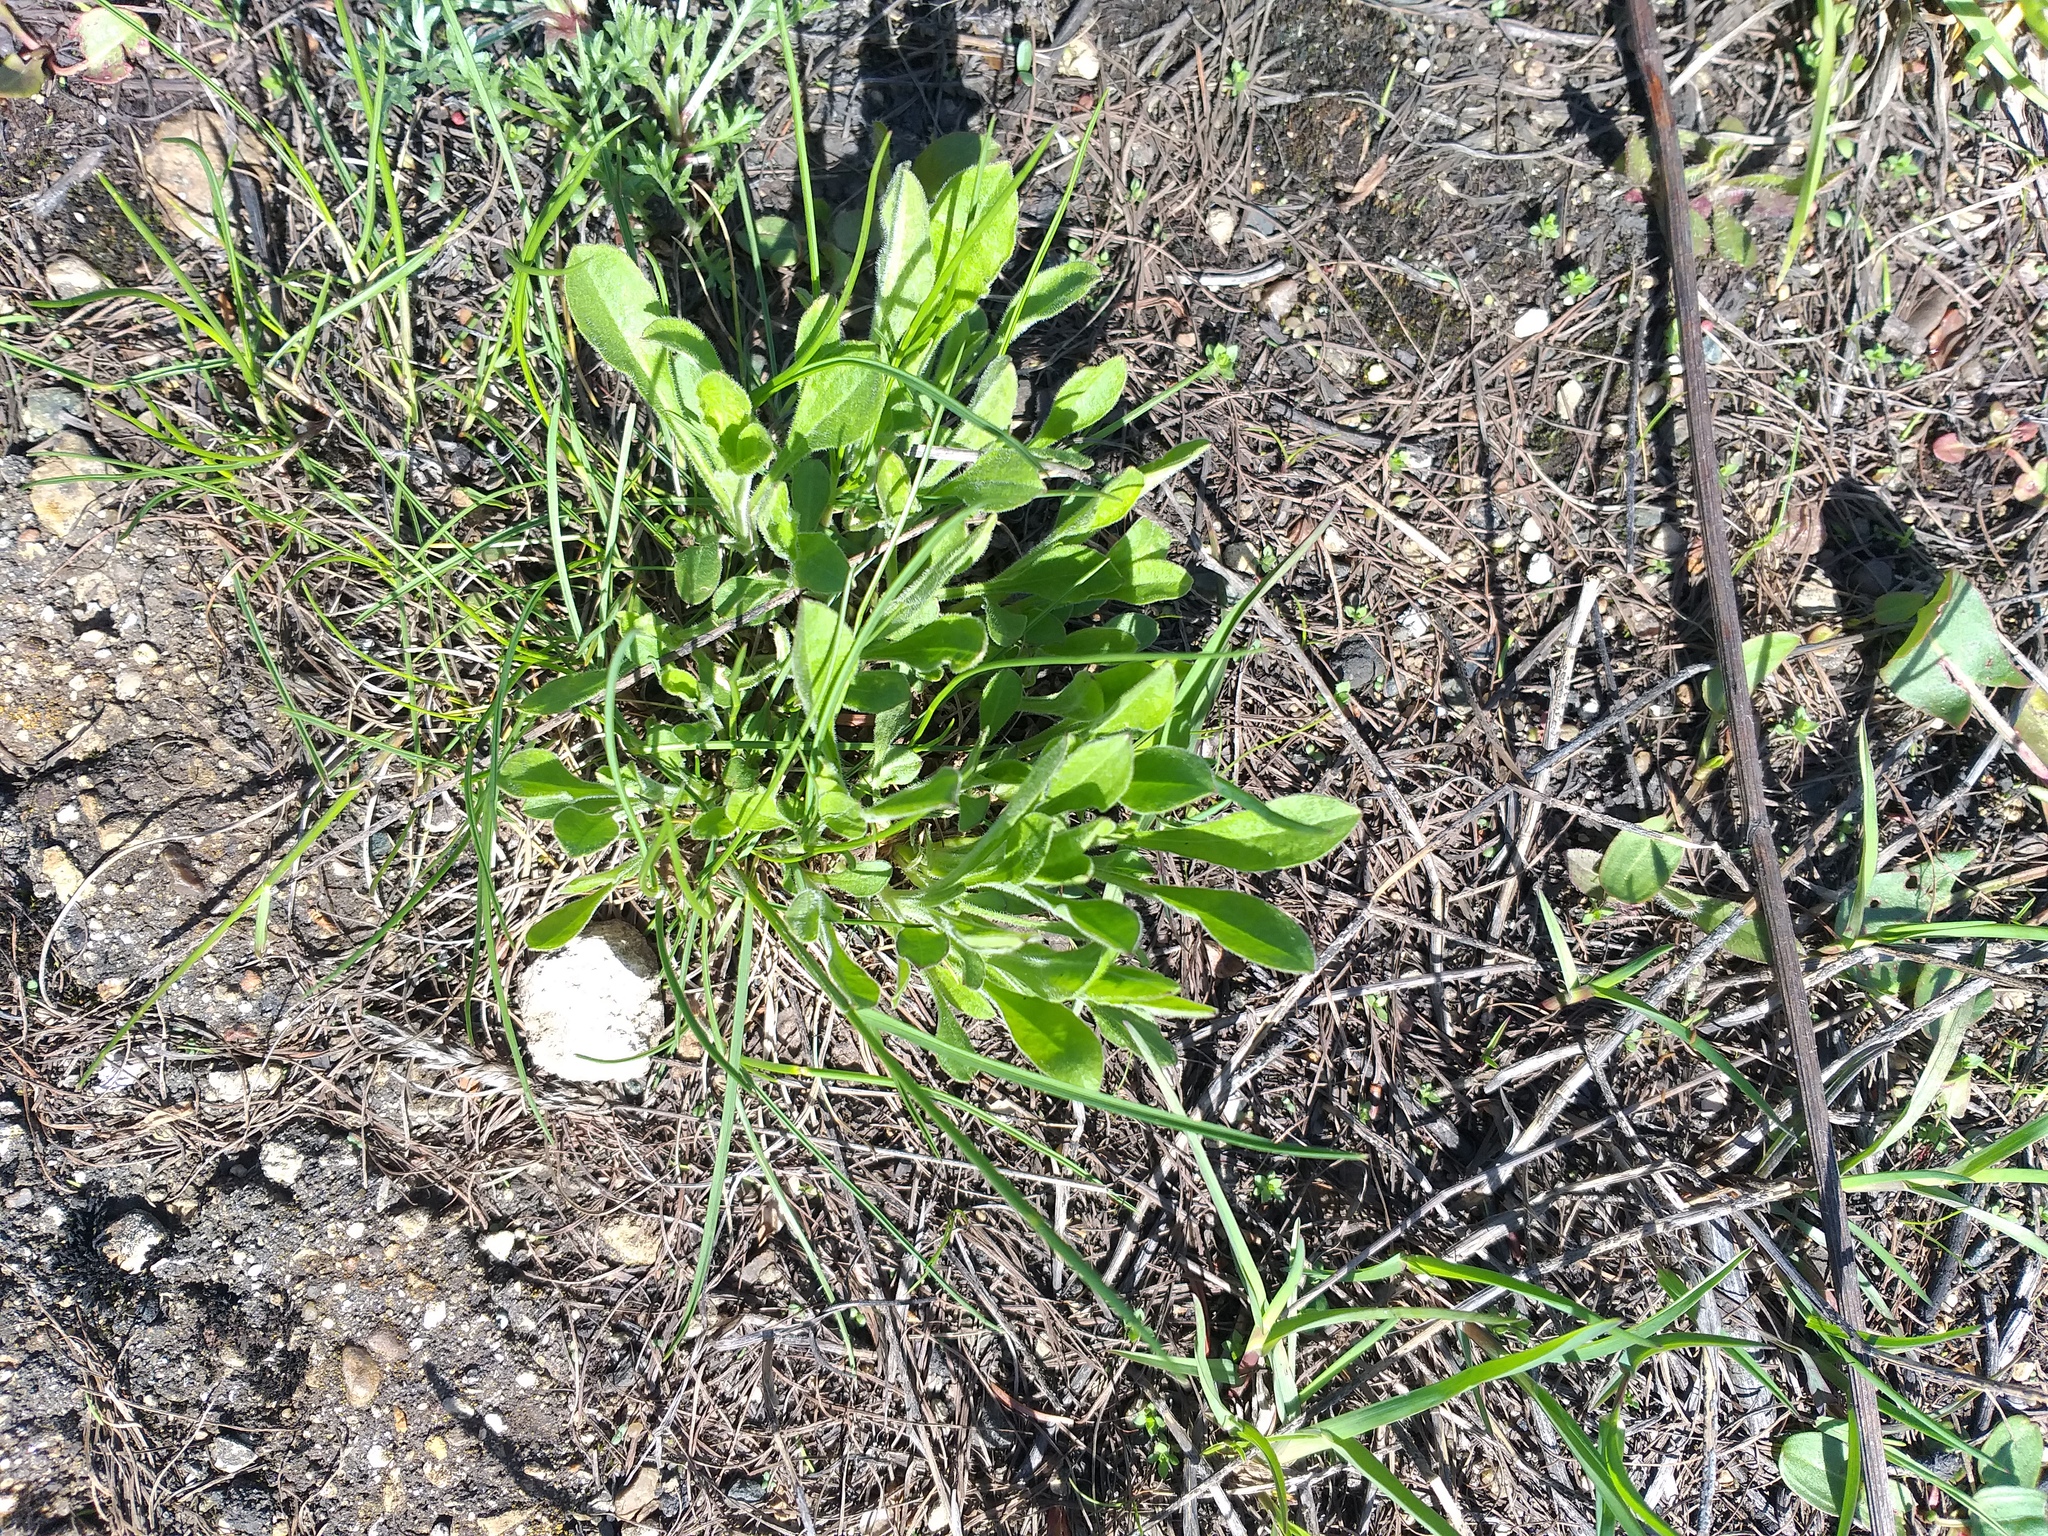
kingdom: Plantae
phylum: Tracheophyta
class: Magnoliopsida
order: Caryophyllales
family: Caryophyllaceae
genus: Silene
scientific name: Silene nutans
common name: Nottingham catchfly
